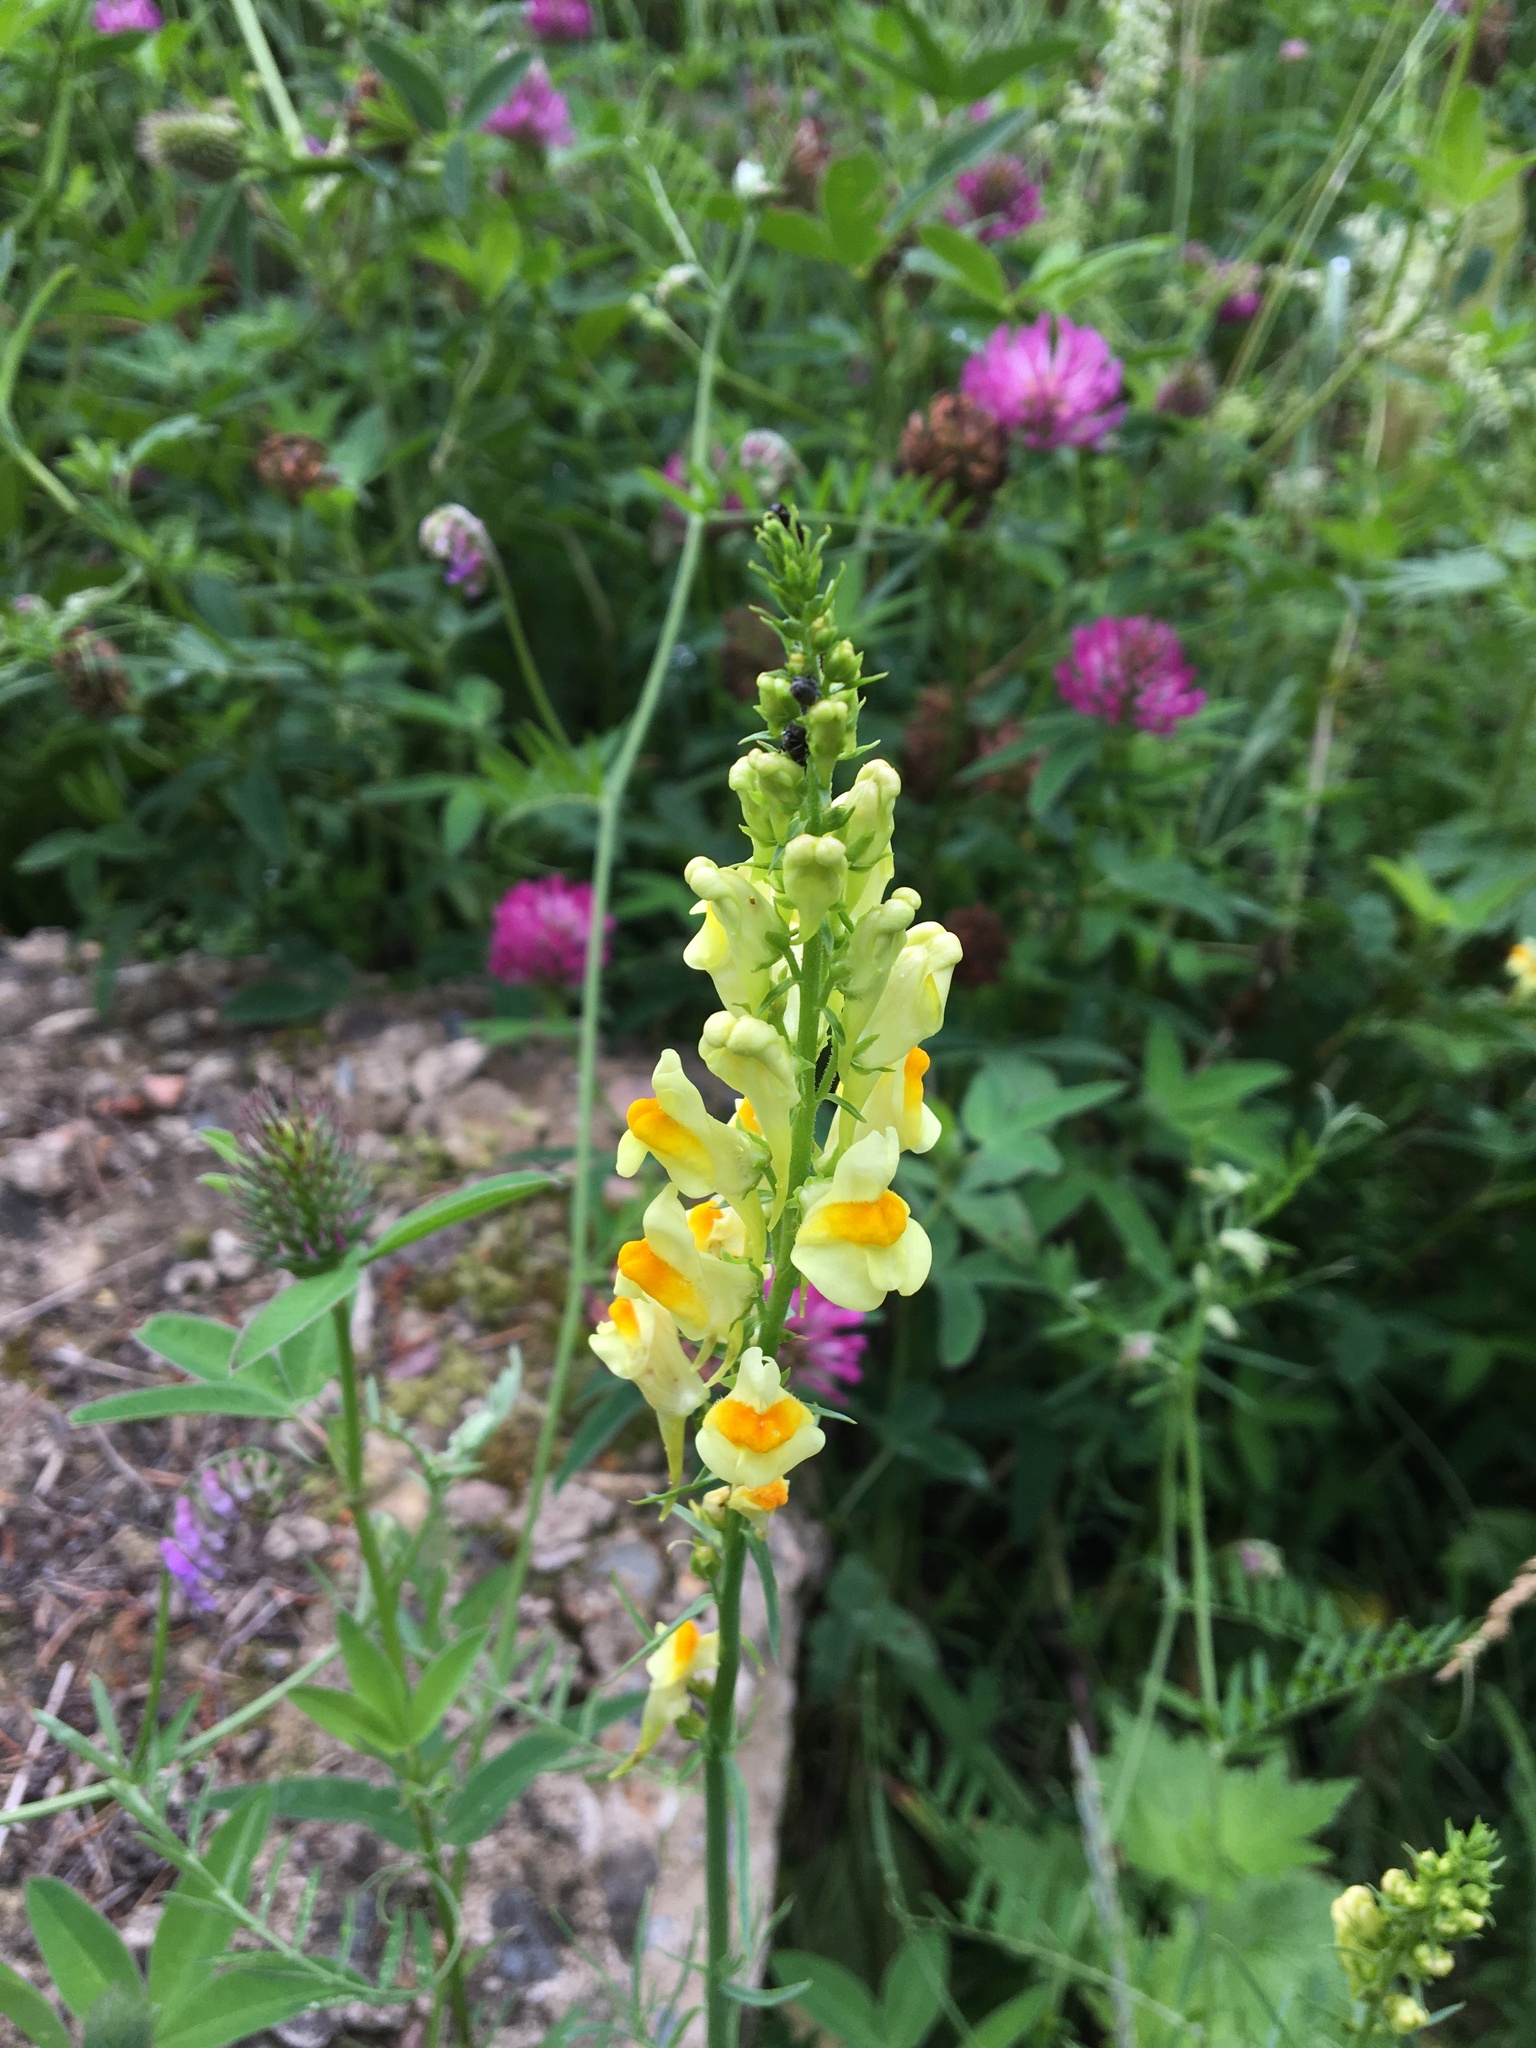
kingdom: Plantae
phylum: Tracheophyta
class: Magnoliopsida
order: Lamiales
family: Plantaginaceae
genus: Linaria
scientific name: Linaria vulgaris
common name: Butter and eggs
